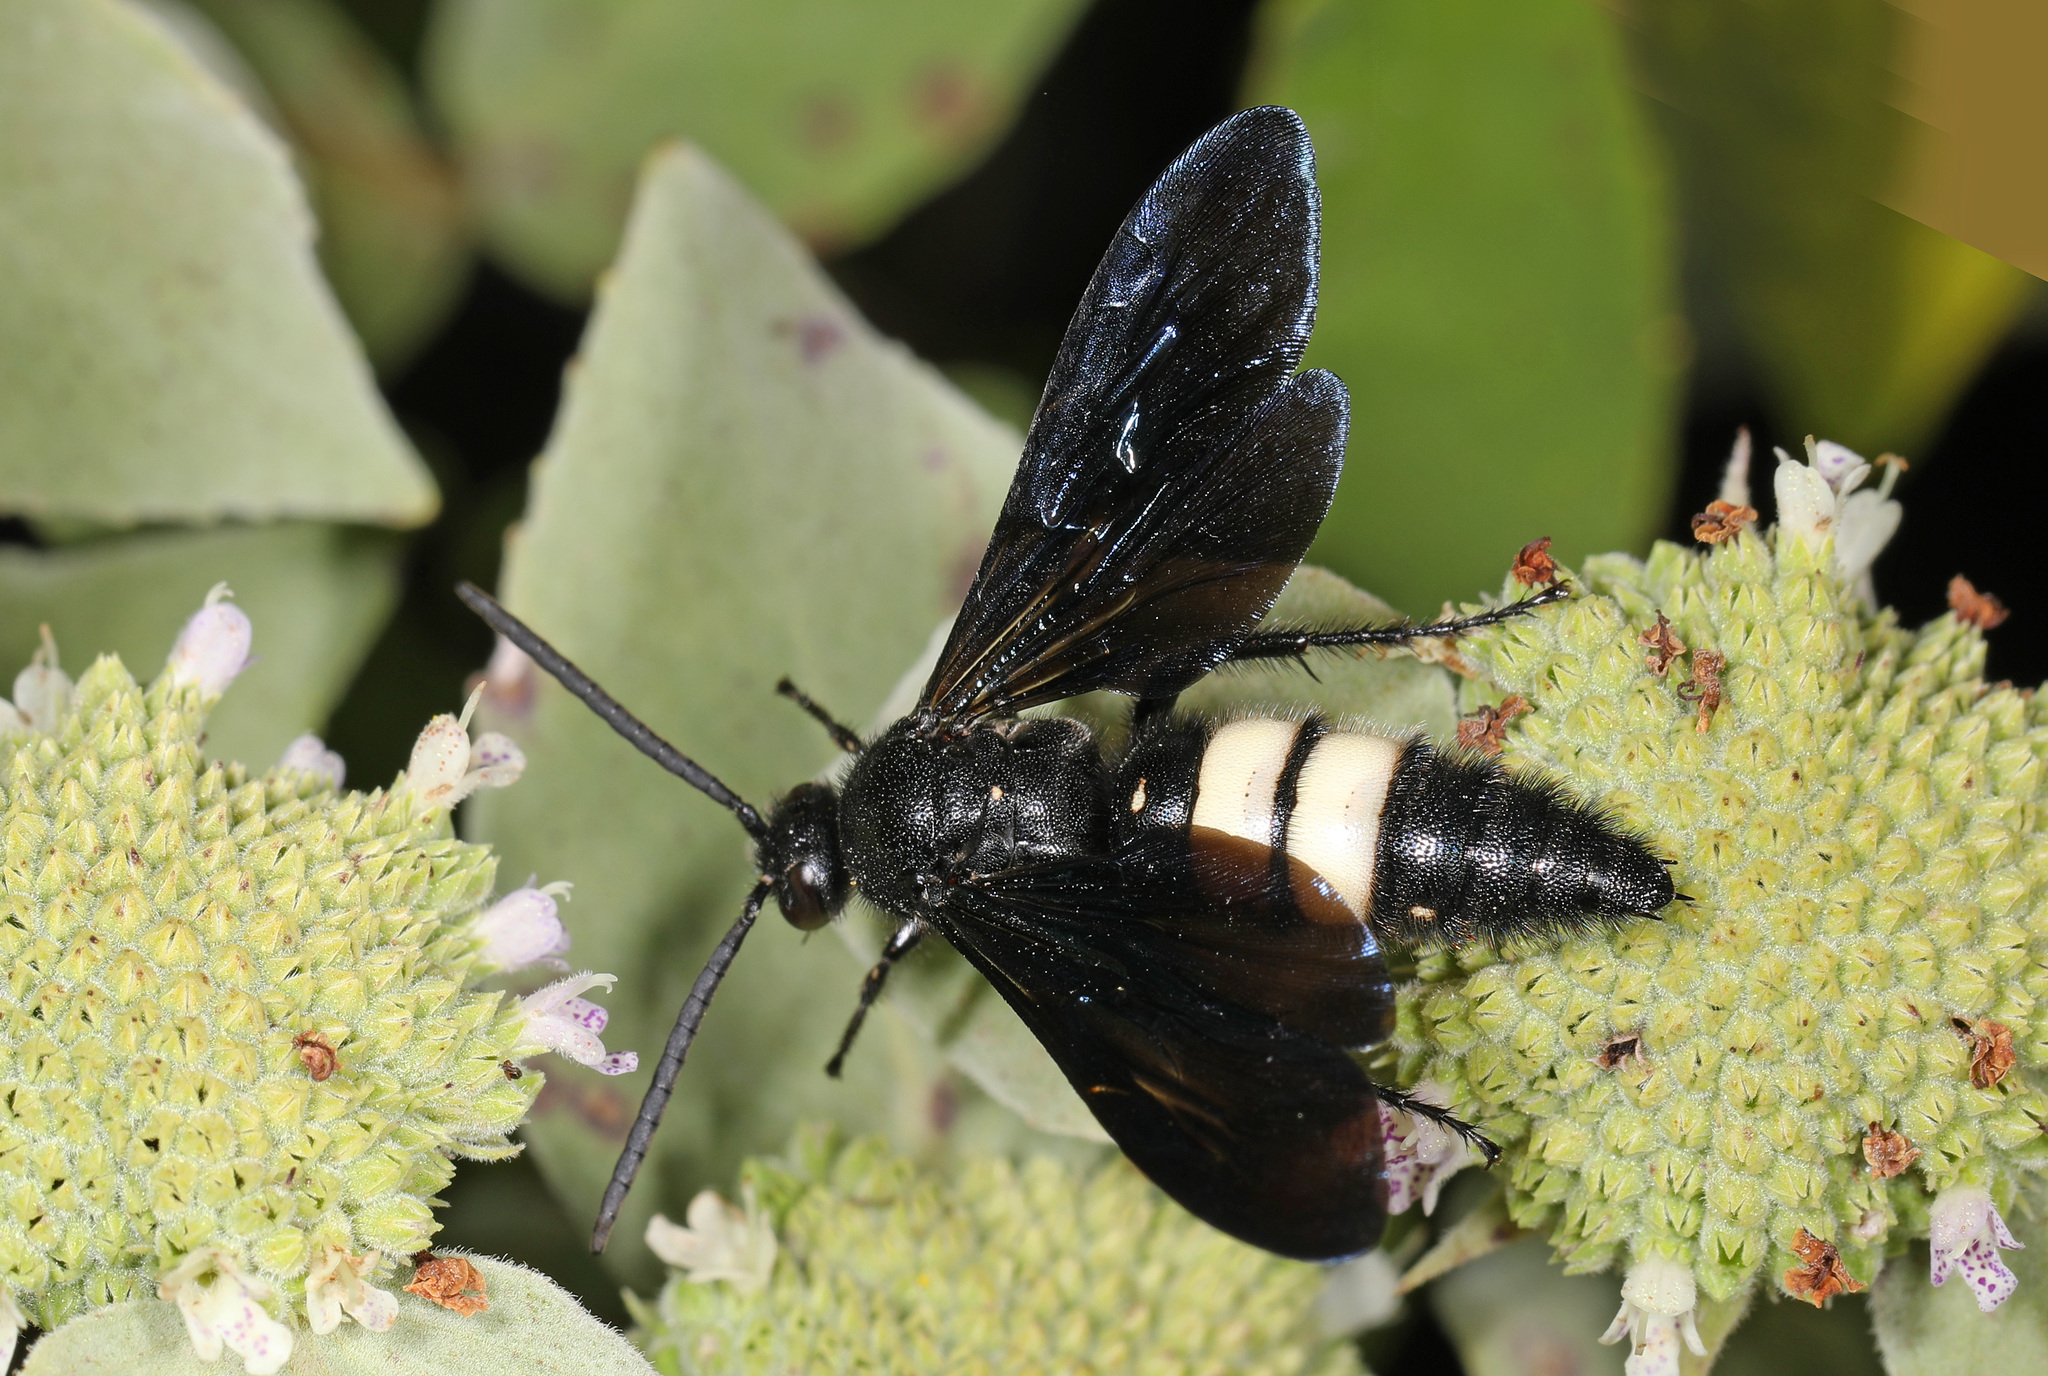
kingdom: Animalia
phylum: Arthropoda
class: Insecta
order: Hymenoptera
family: Scoliidae
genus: Scolia
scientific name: Scolia bicincta
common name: Double-banded scoliid wasp
